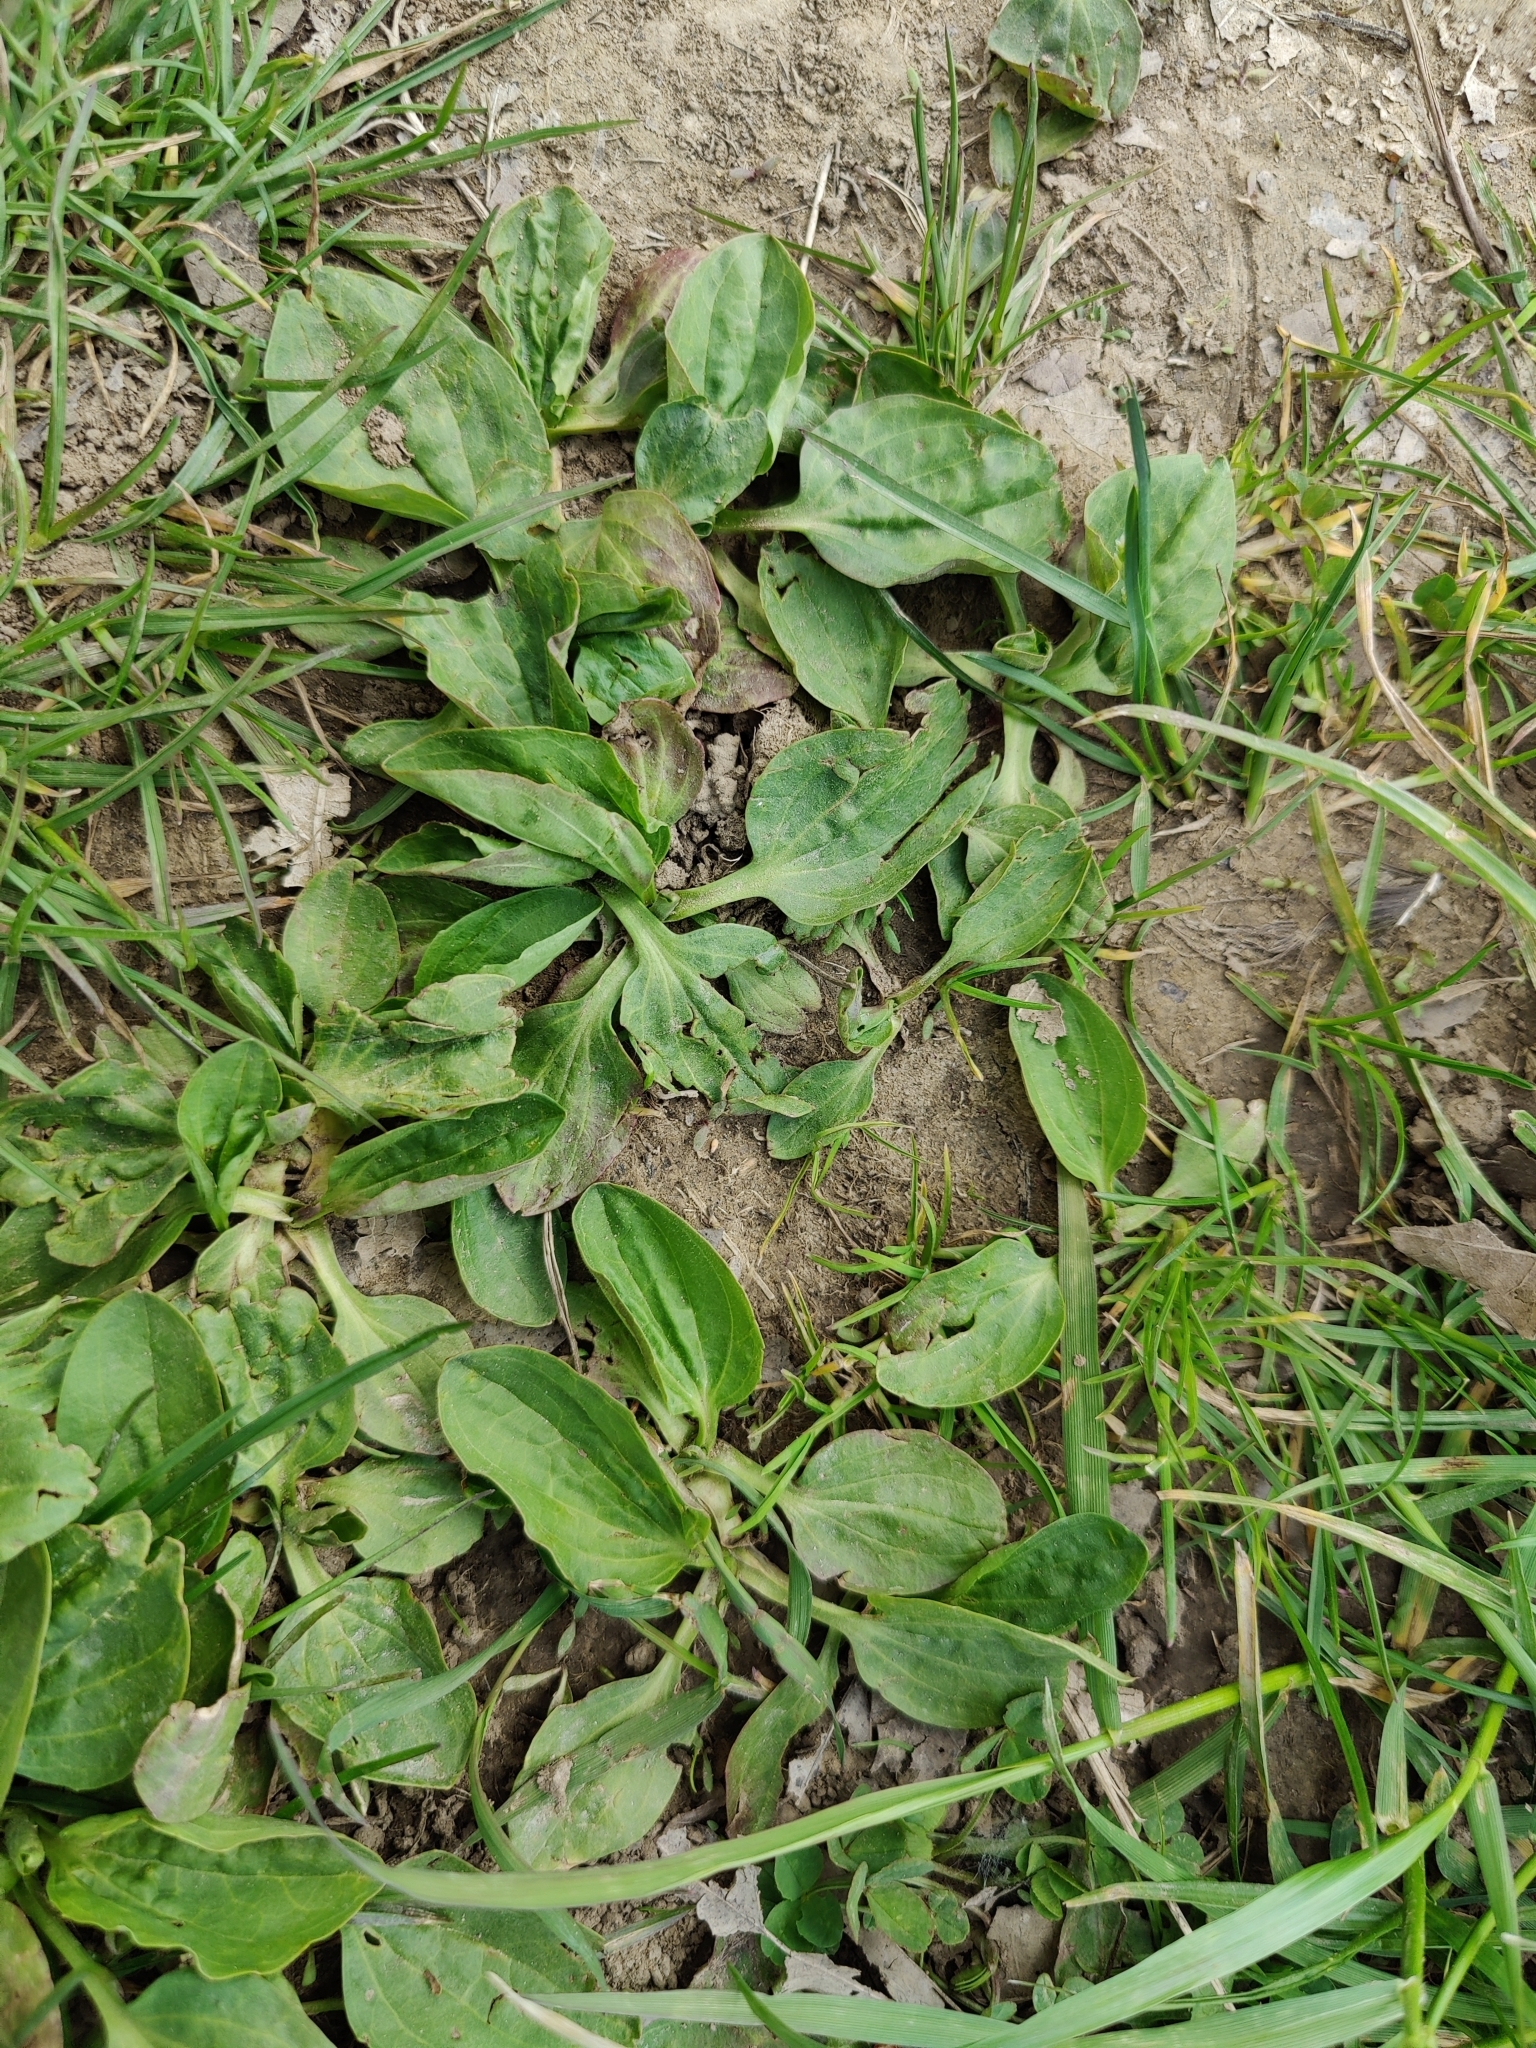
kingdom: Plantae
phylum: Tracheophyta
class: Magnoliopsida
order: Lamiales
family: Plantaginaceae
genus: Plantago
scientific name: Plantago major
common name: Common plantain
